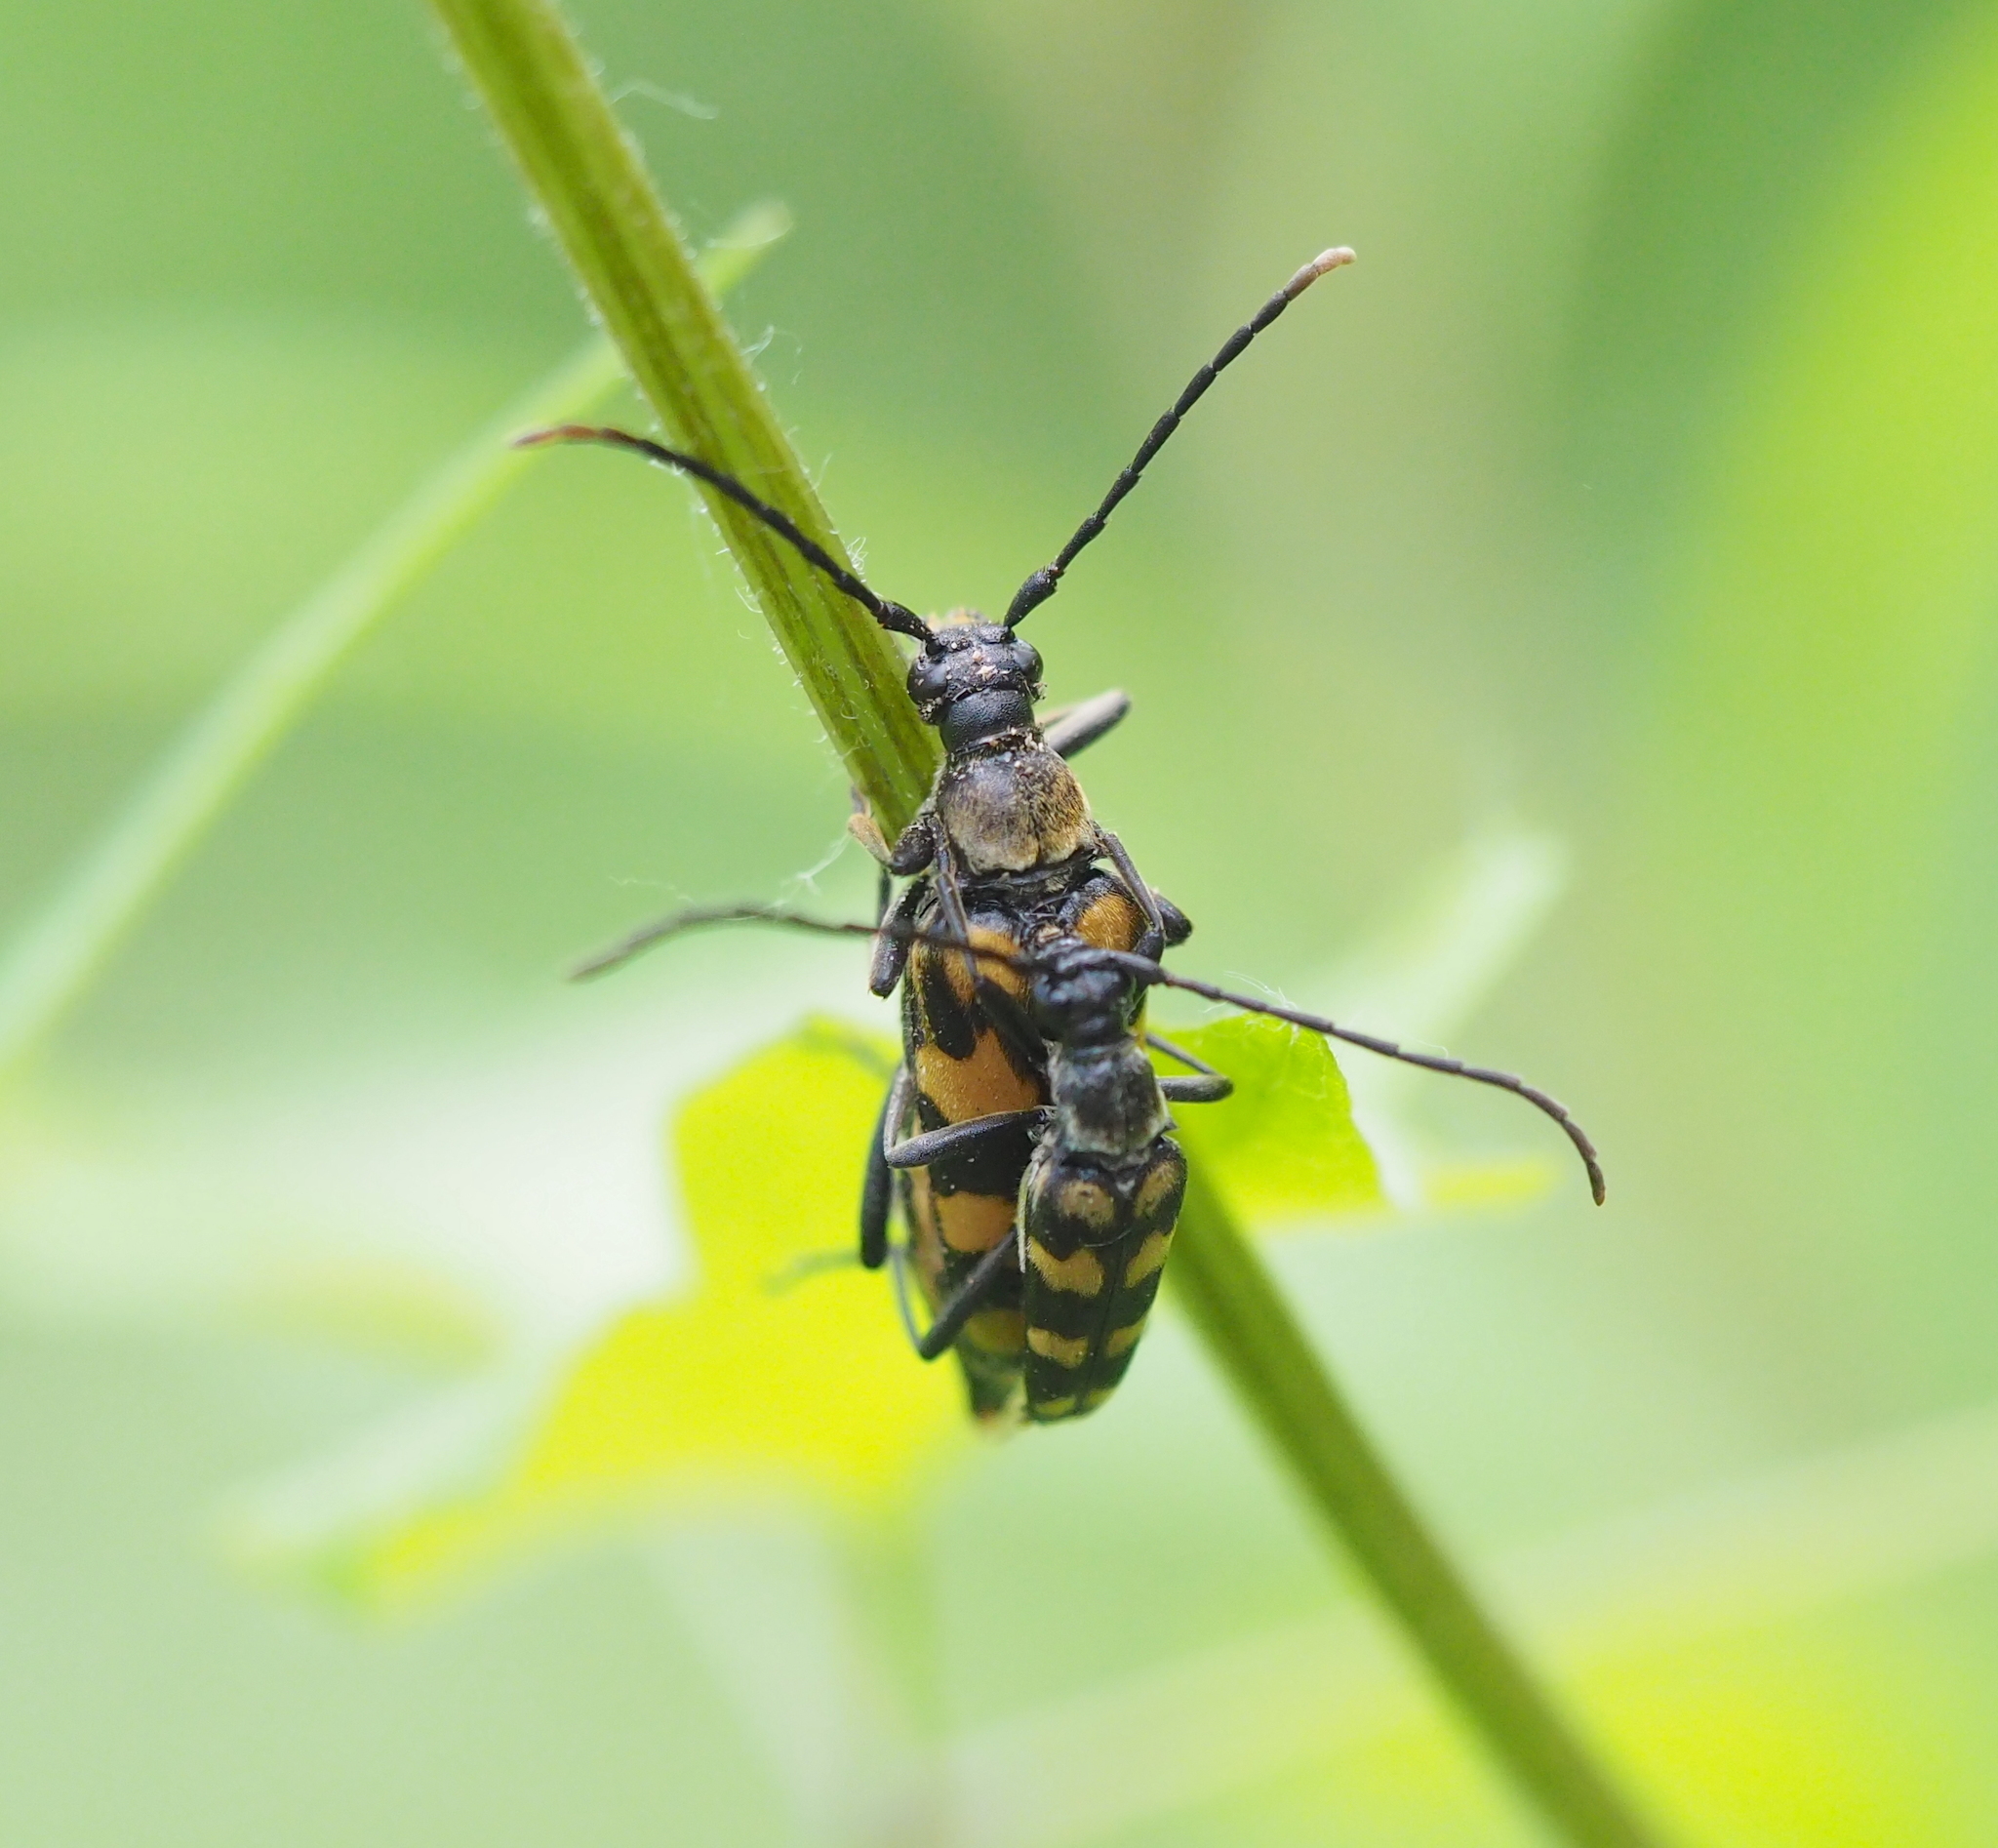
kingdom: Animalia
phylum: Arthropoda
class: Insecta
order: Coleoptera
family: Cerambycidae
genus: Leptura
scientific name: Leptura quadrifasciata
